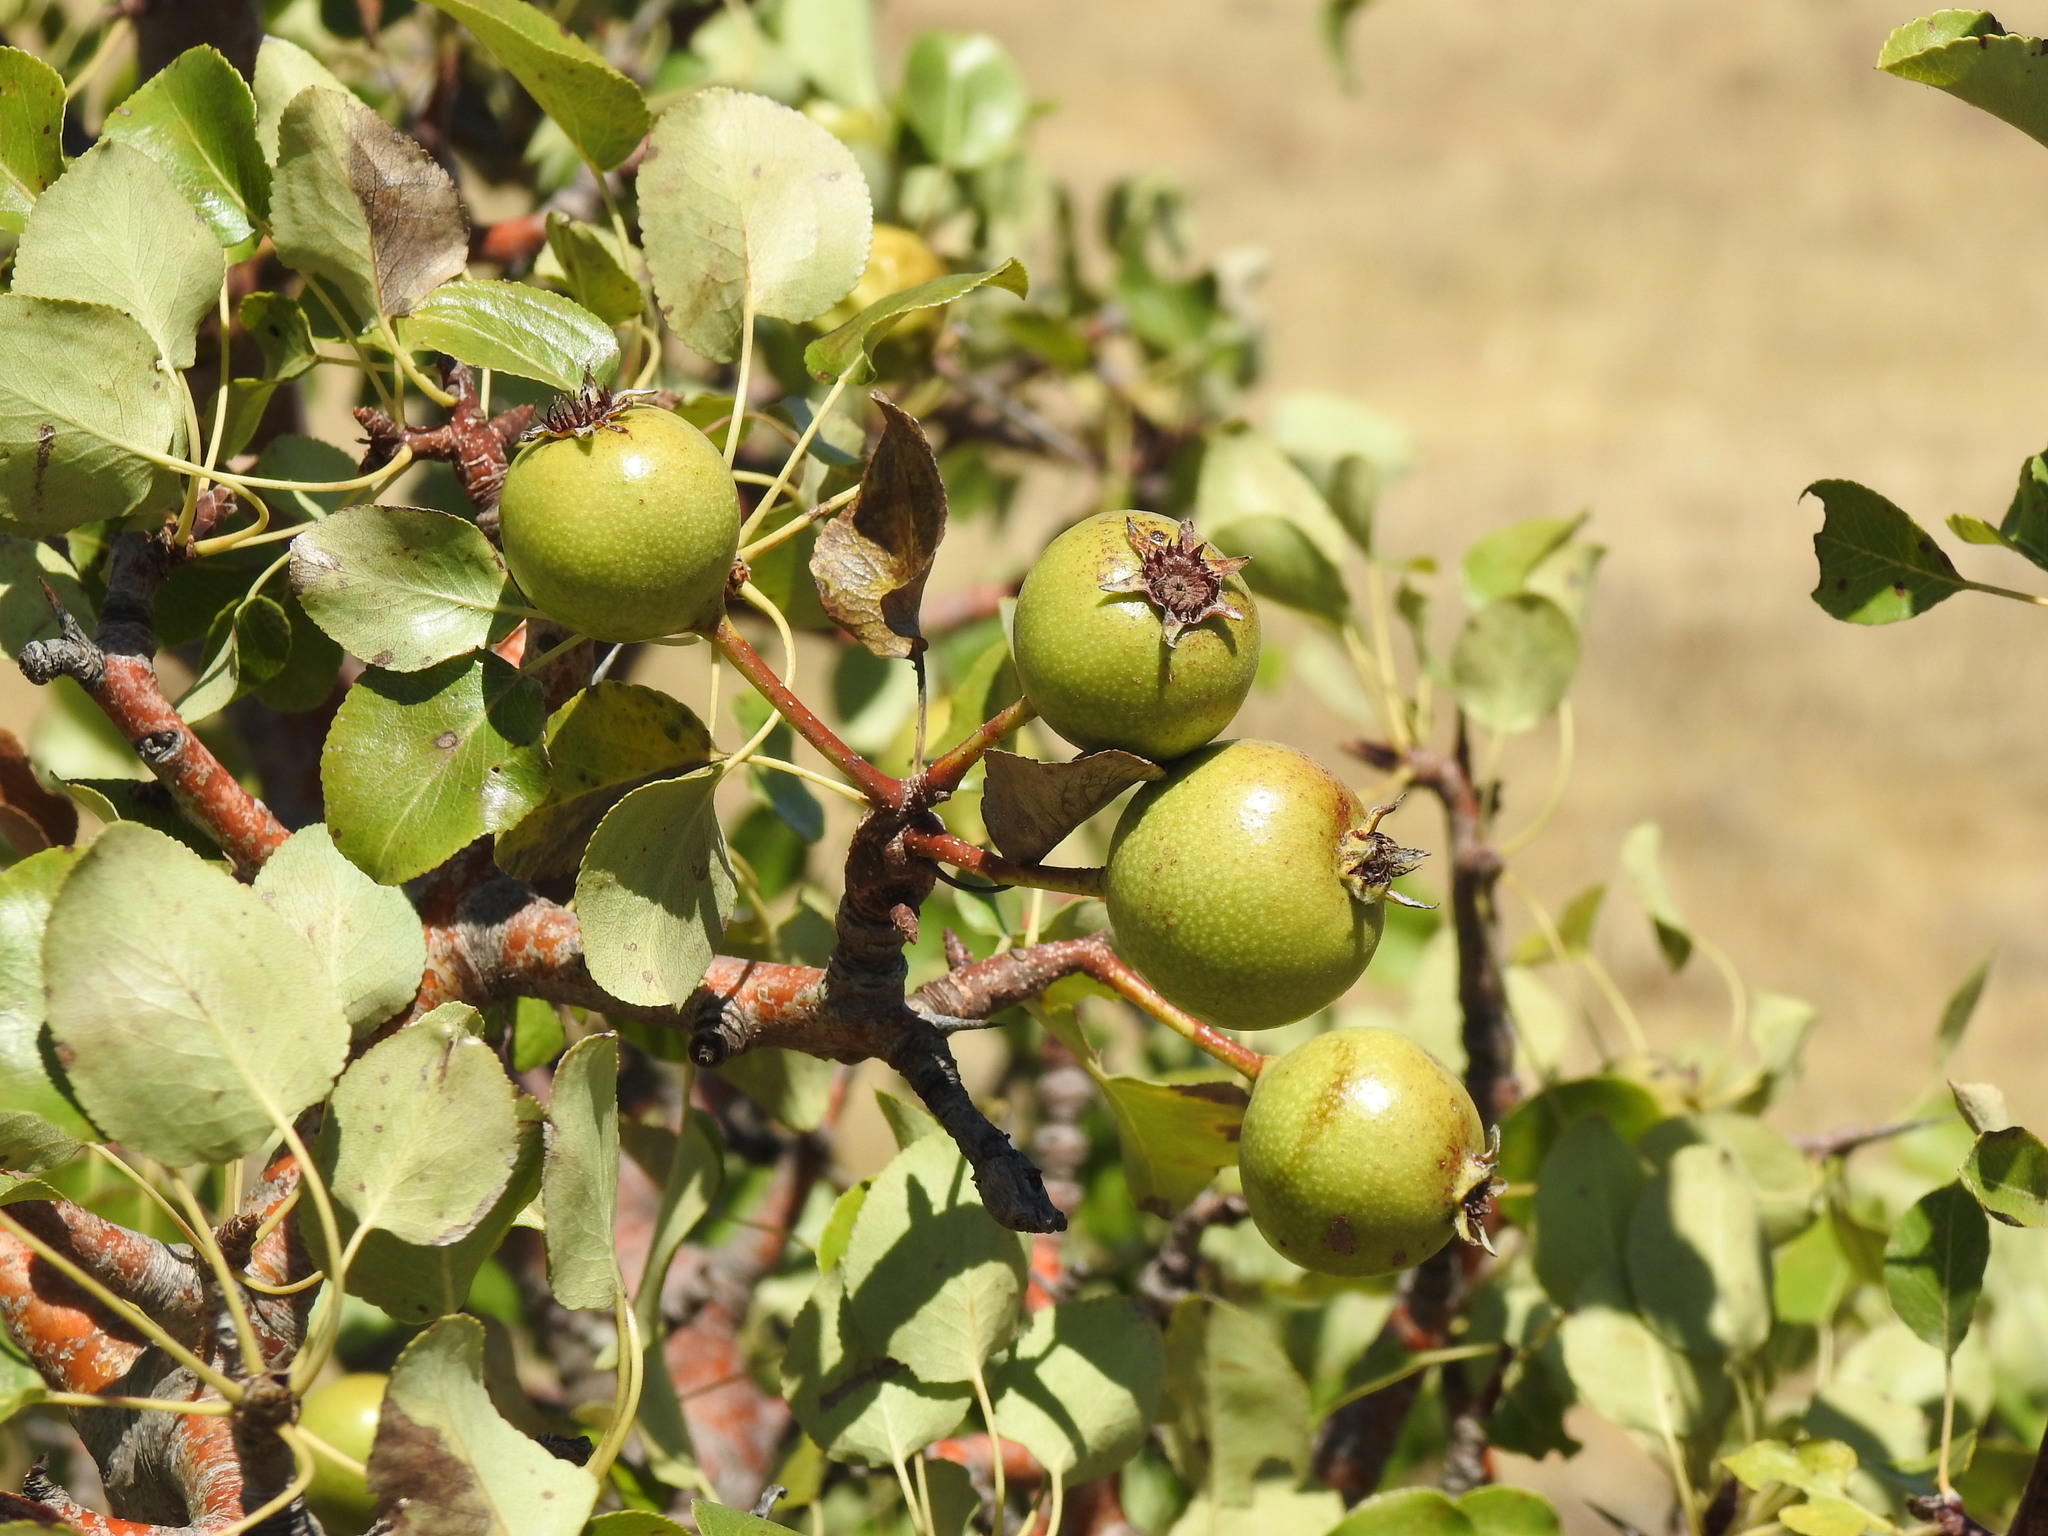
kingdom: Plantae
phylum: Tracheophyta
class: Magnoliopsida
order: Rosales
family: Rosaceae
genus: Pyrus
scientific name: Pyrus bourgaeana
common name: Iberian pear
